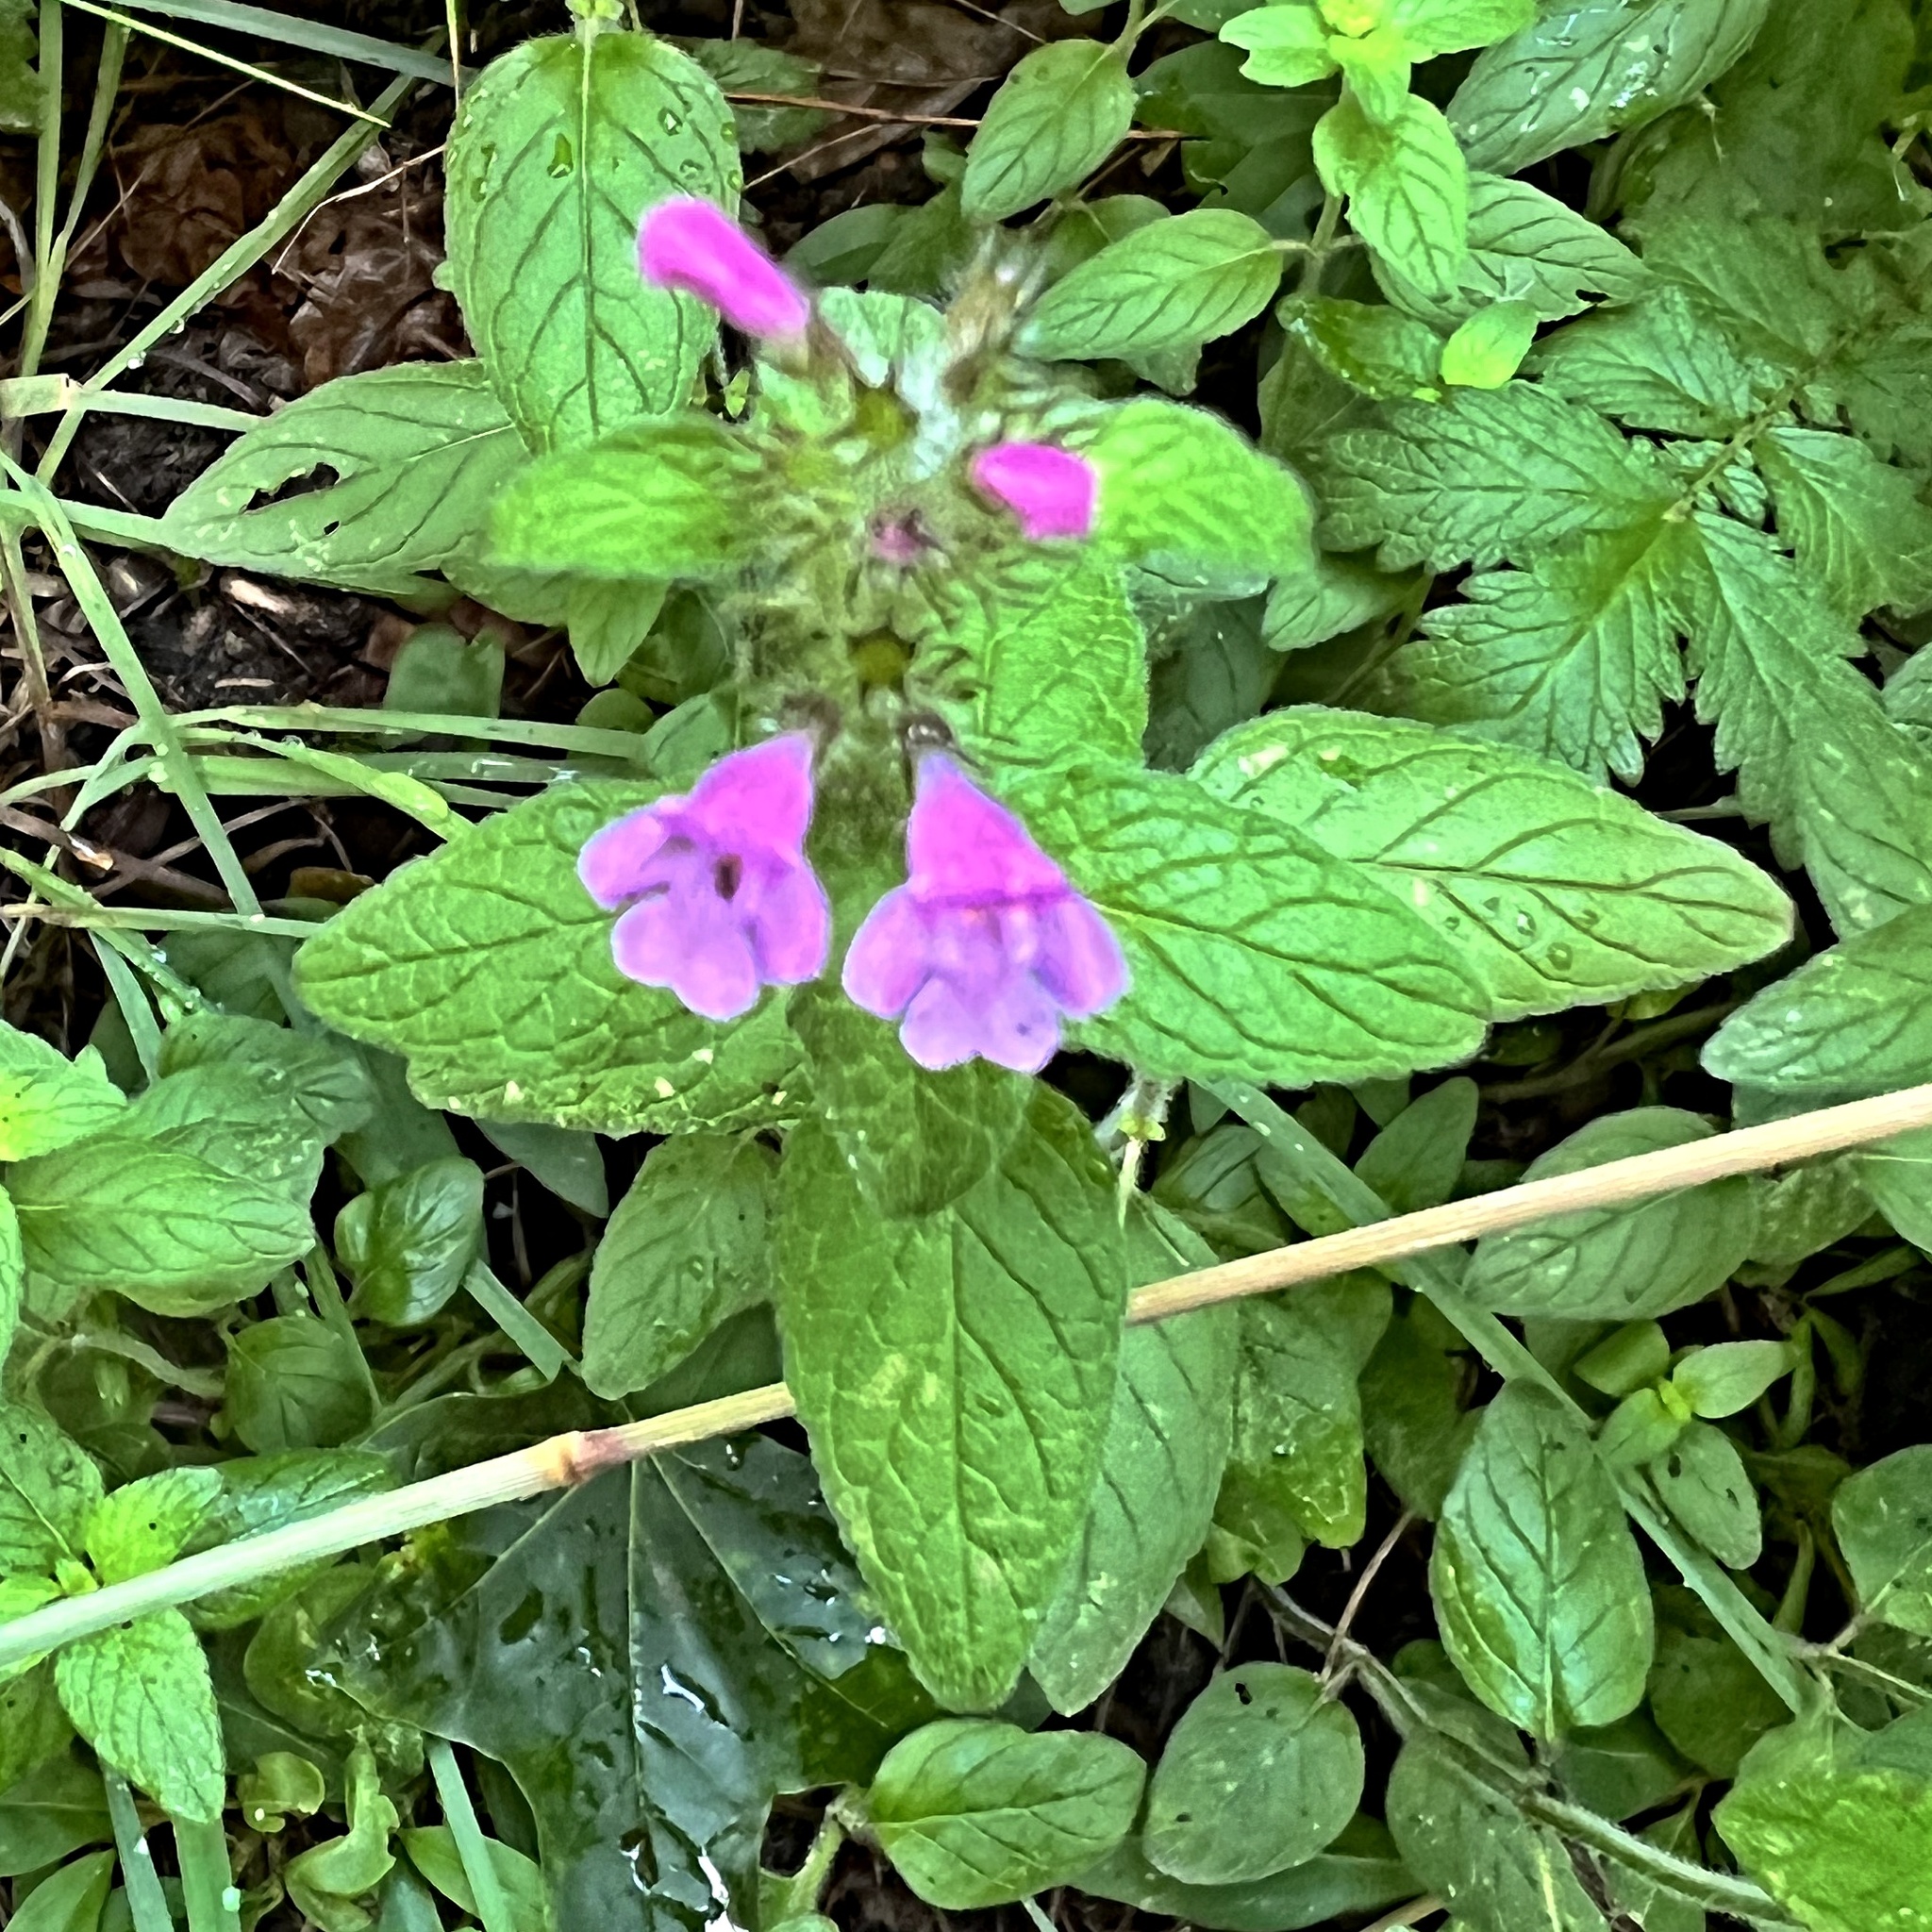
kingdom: Plantae
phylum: Tracheophyta
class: Magnoliopsida
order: Lamiales
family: Lamiaceae
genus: Clinopodium
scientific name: Clinopodium vulgare
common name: Wild basil
